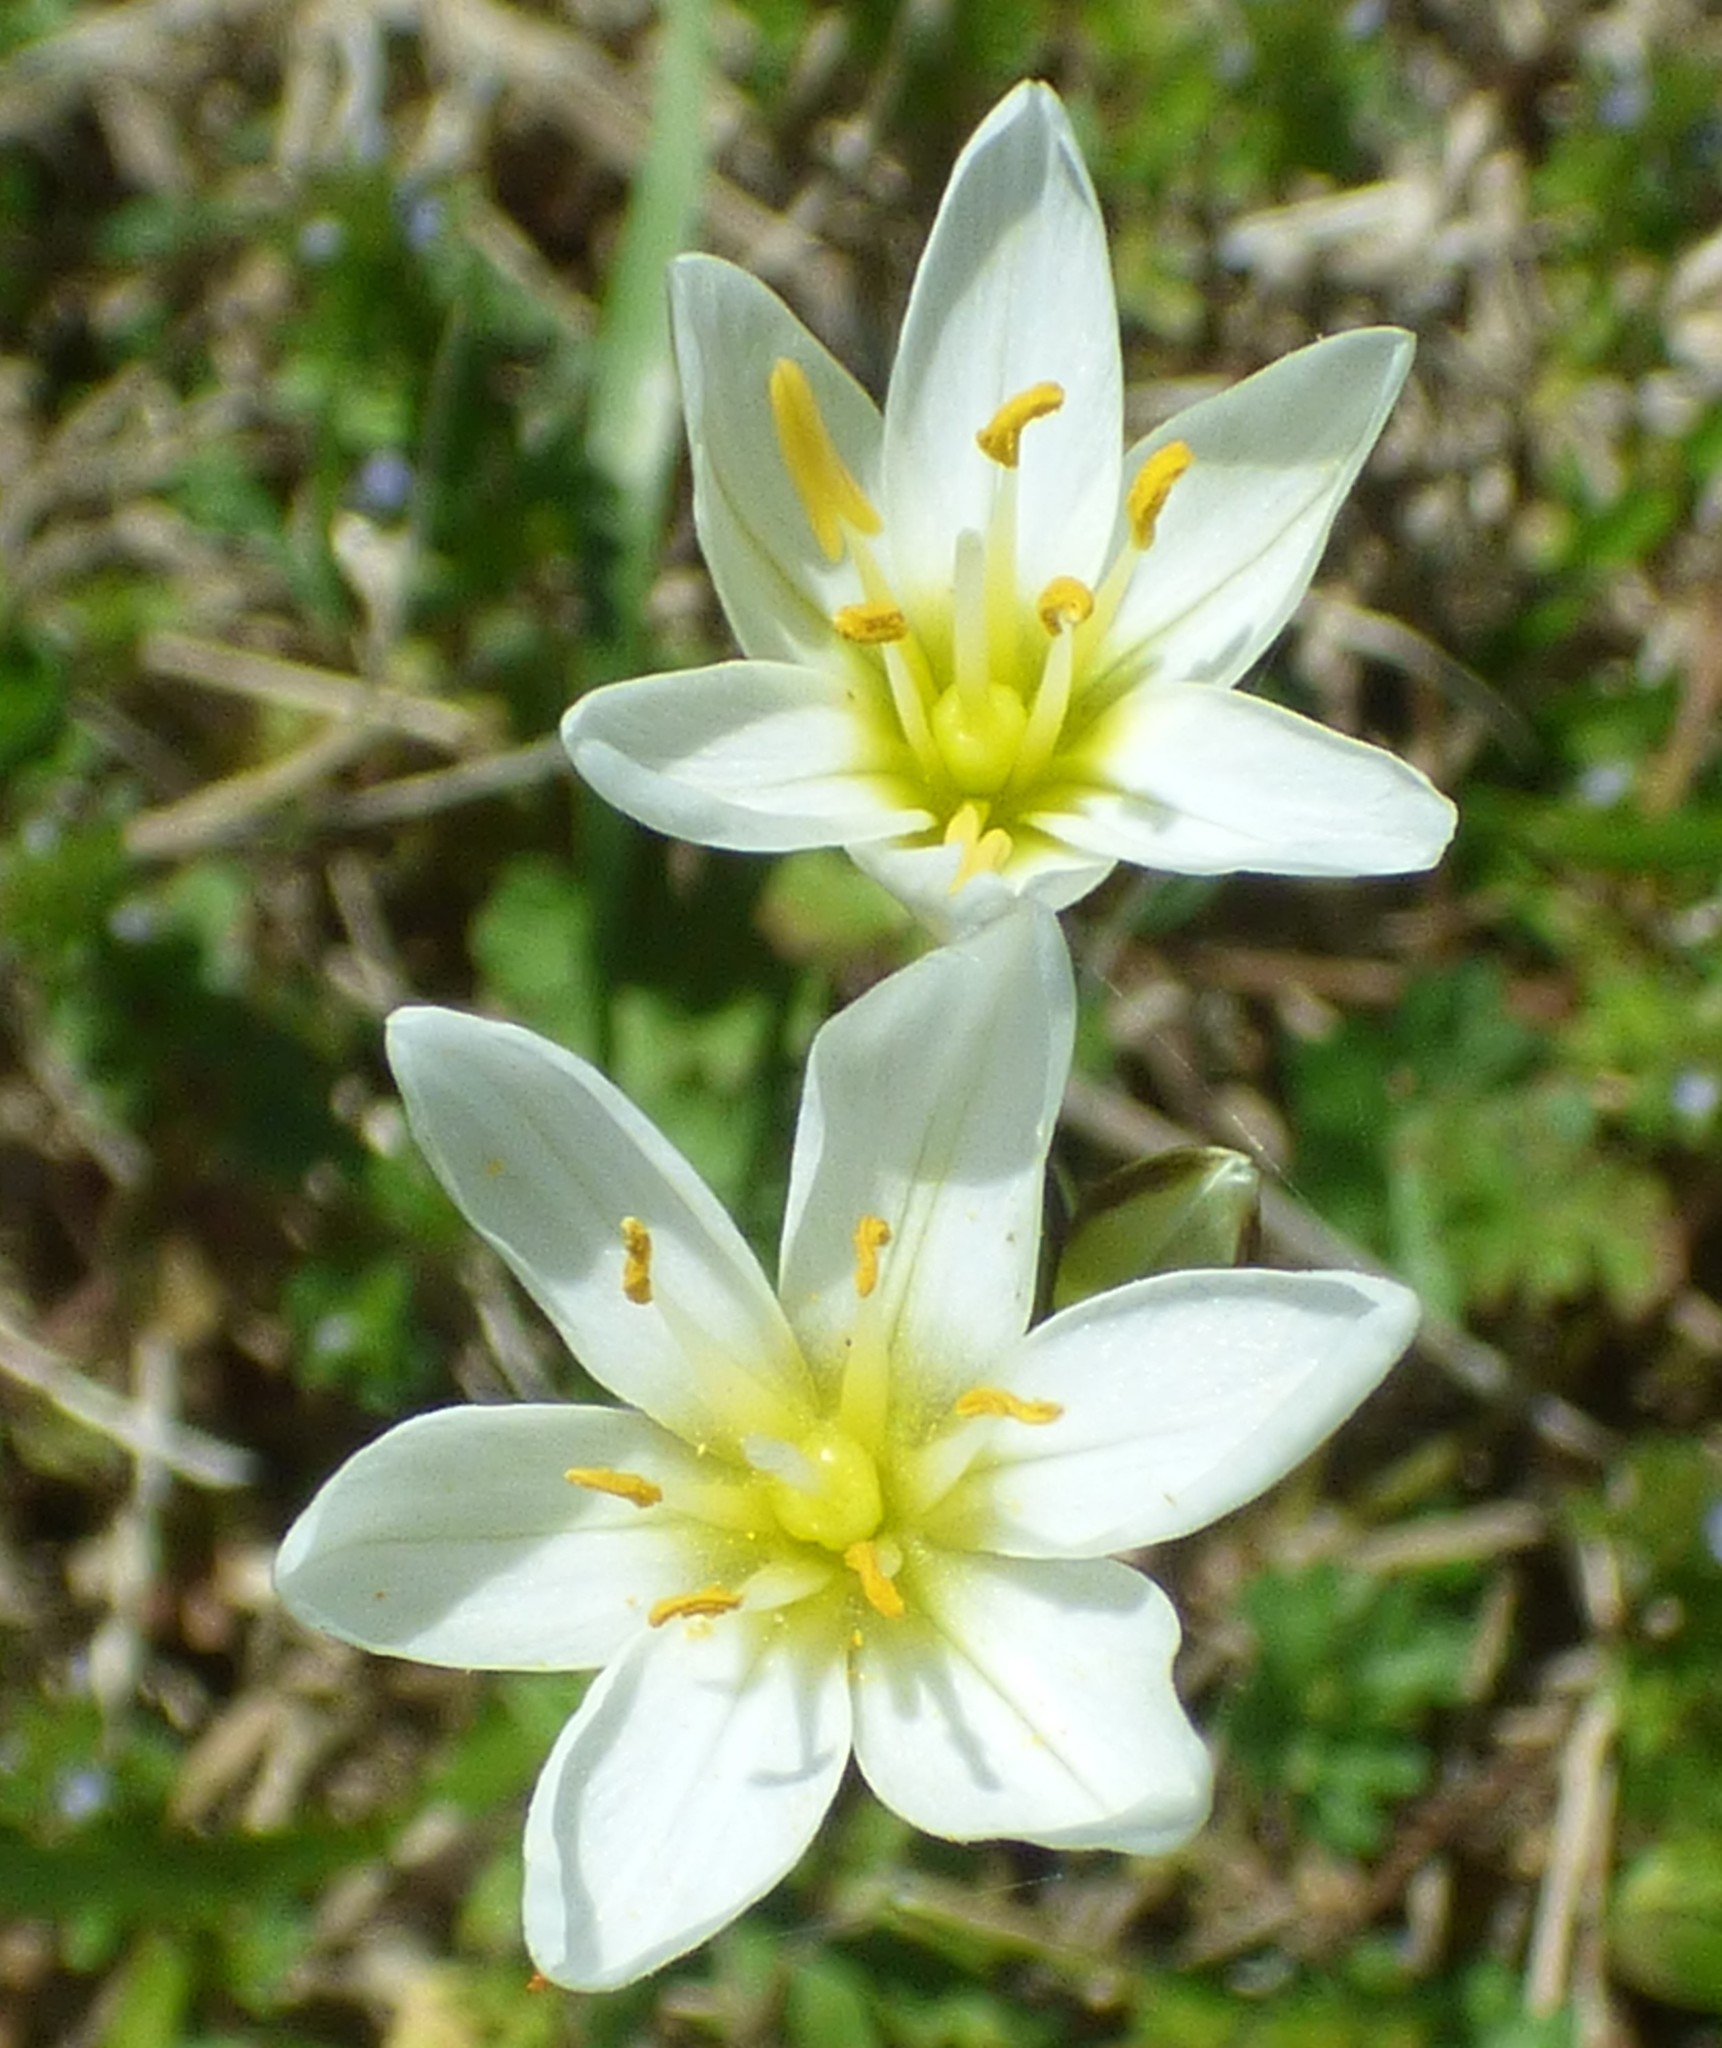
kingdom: Plantae
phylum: Tracheophyta
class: Liliopsida
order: Asparagales
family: Amaryllidaceae
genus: Nothoscordum
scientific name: Nothoscordum bivalve
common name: Crow-poison
